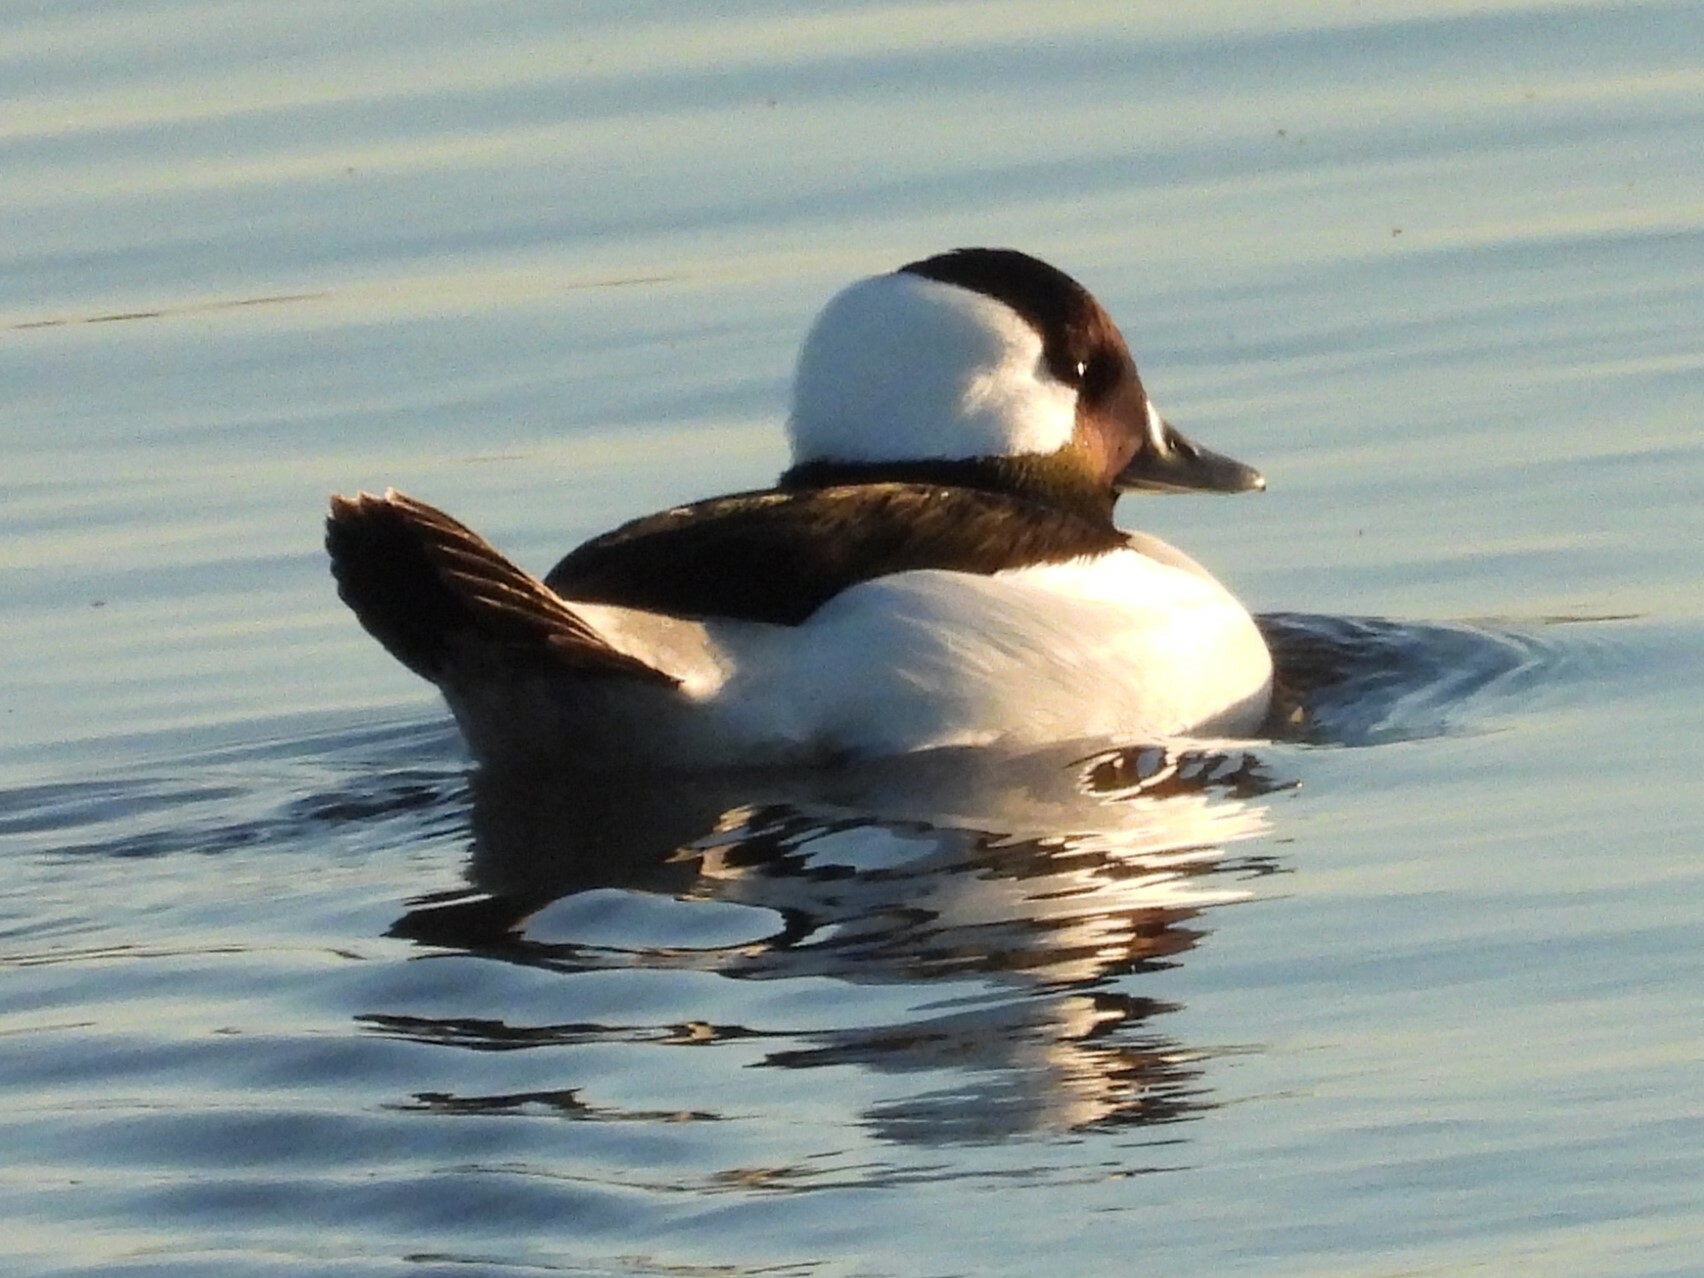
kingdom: Animalia
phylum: Chordata
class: Aves
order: Anseriformes
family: Anatidae
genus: Bucephala
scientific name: Bucephala albeola
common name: Bufflehead
